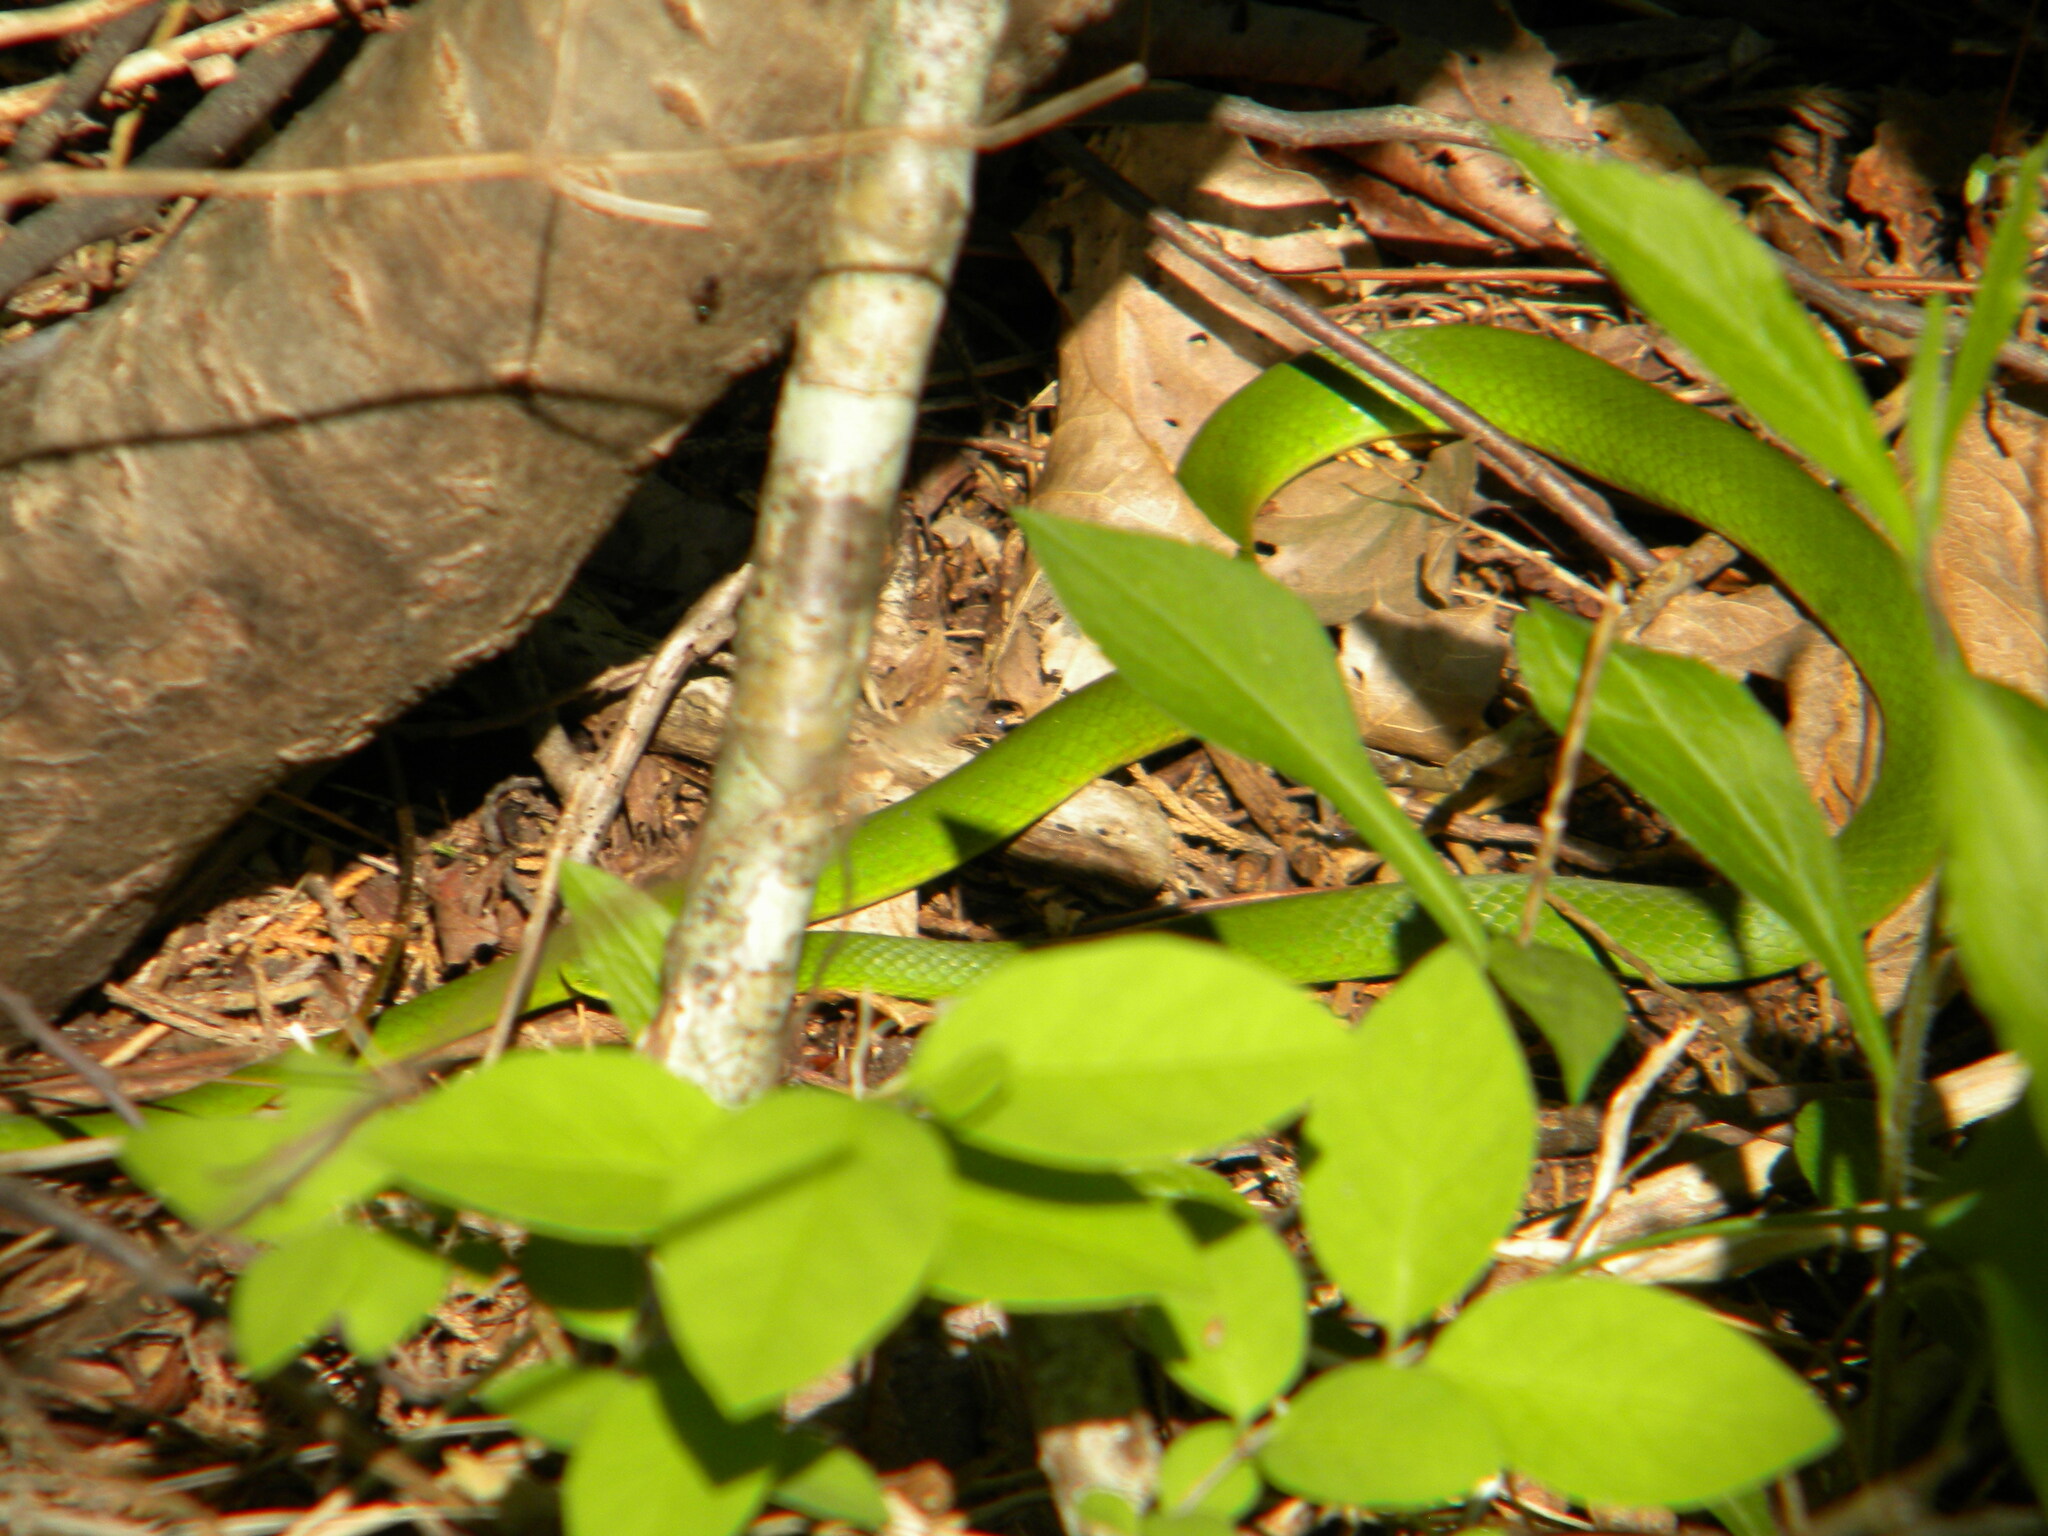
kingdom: Animalia
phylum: Chordata
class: Squamata
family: Colubridae
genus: Opheodrys
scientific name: Opheodrys vernalis
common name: Smooth green snake
